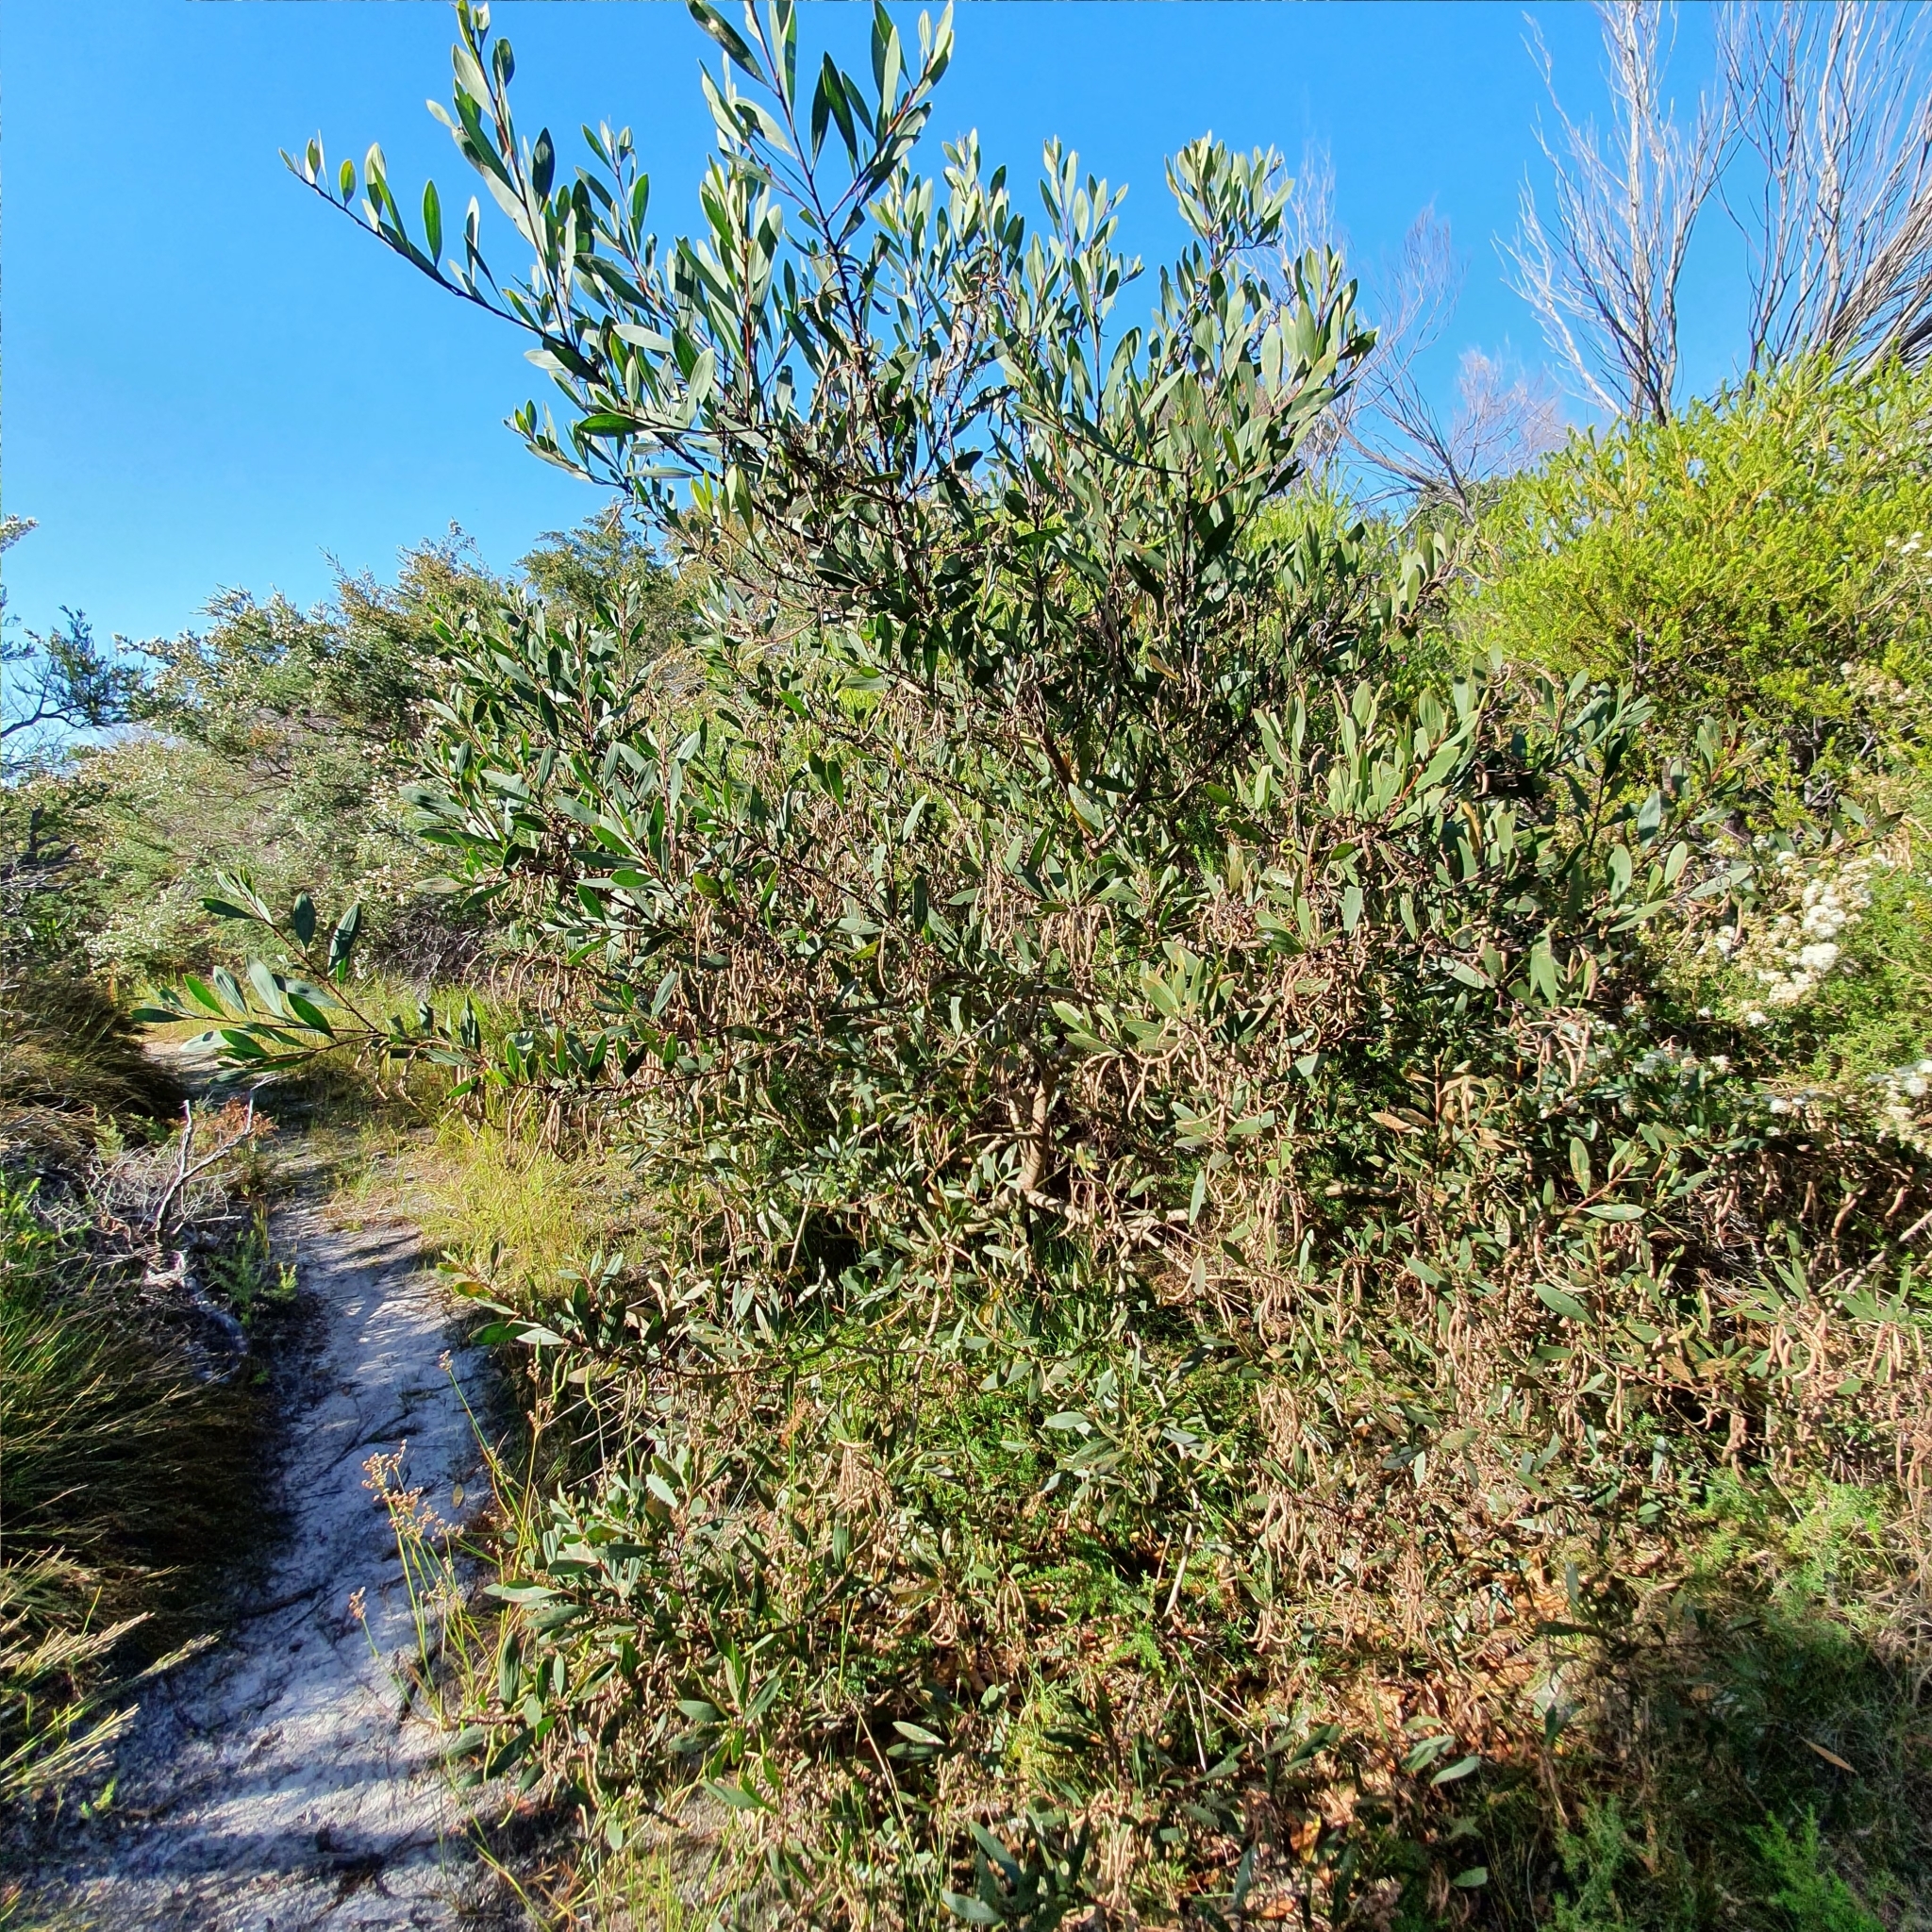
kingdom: Plantae
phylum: Tracheophyta
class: Magnoliopsida
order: Fabales
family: Fabaceae
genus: Acacia
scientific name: Acacia longifolia
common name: Sydney golden wattle
